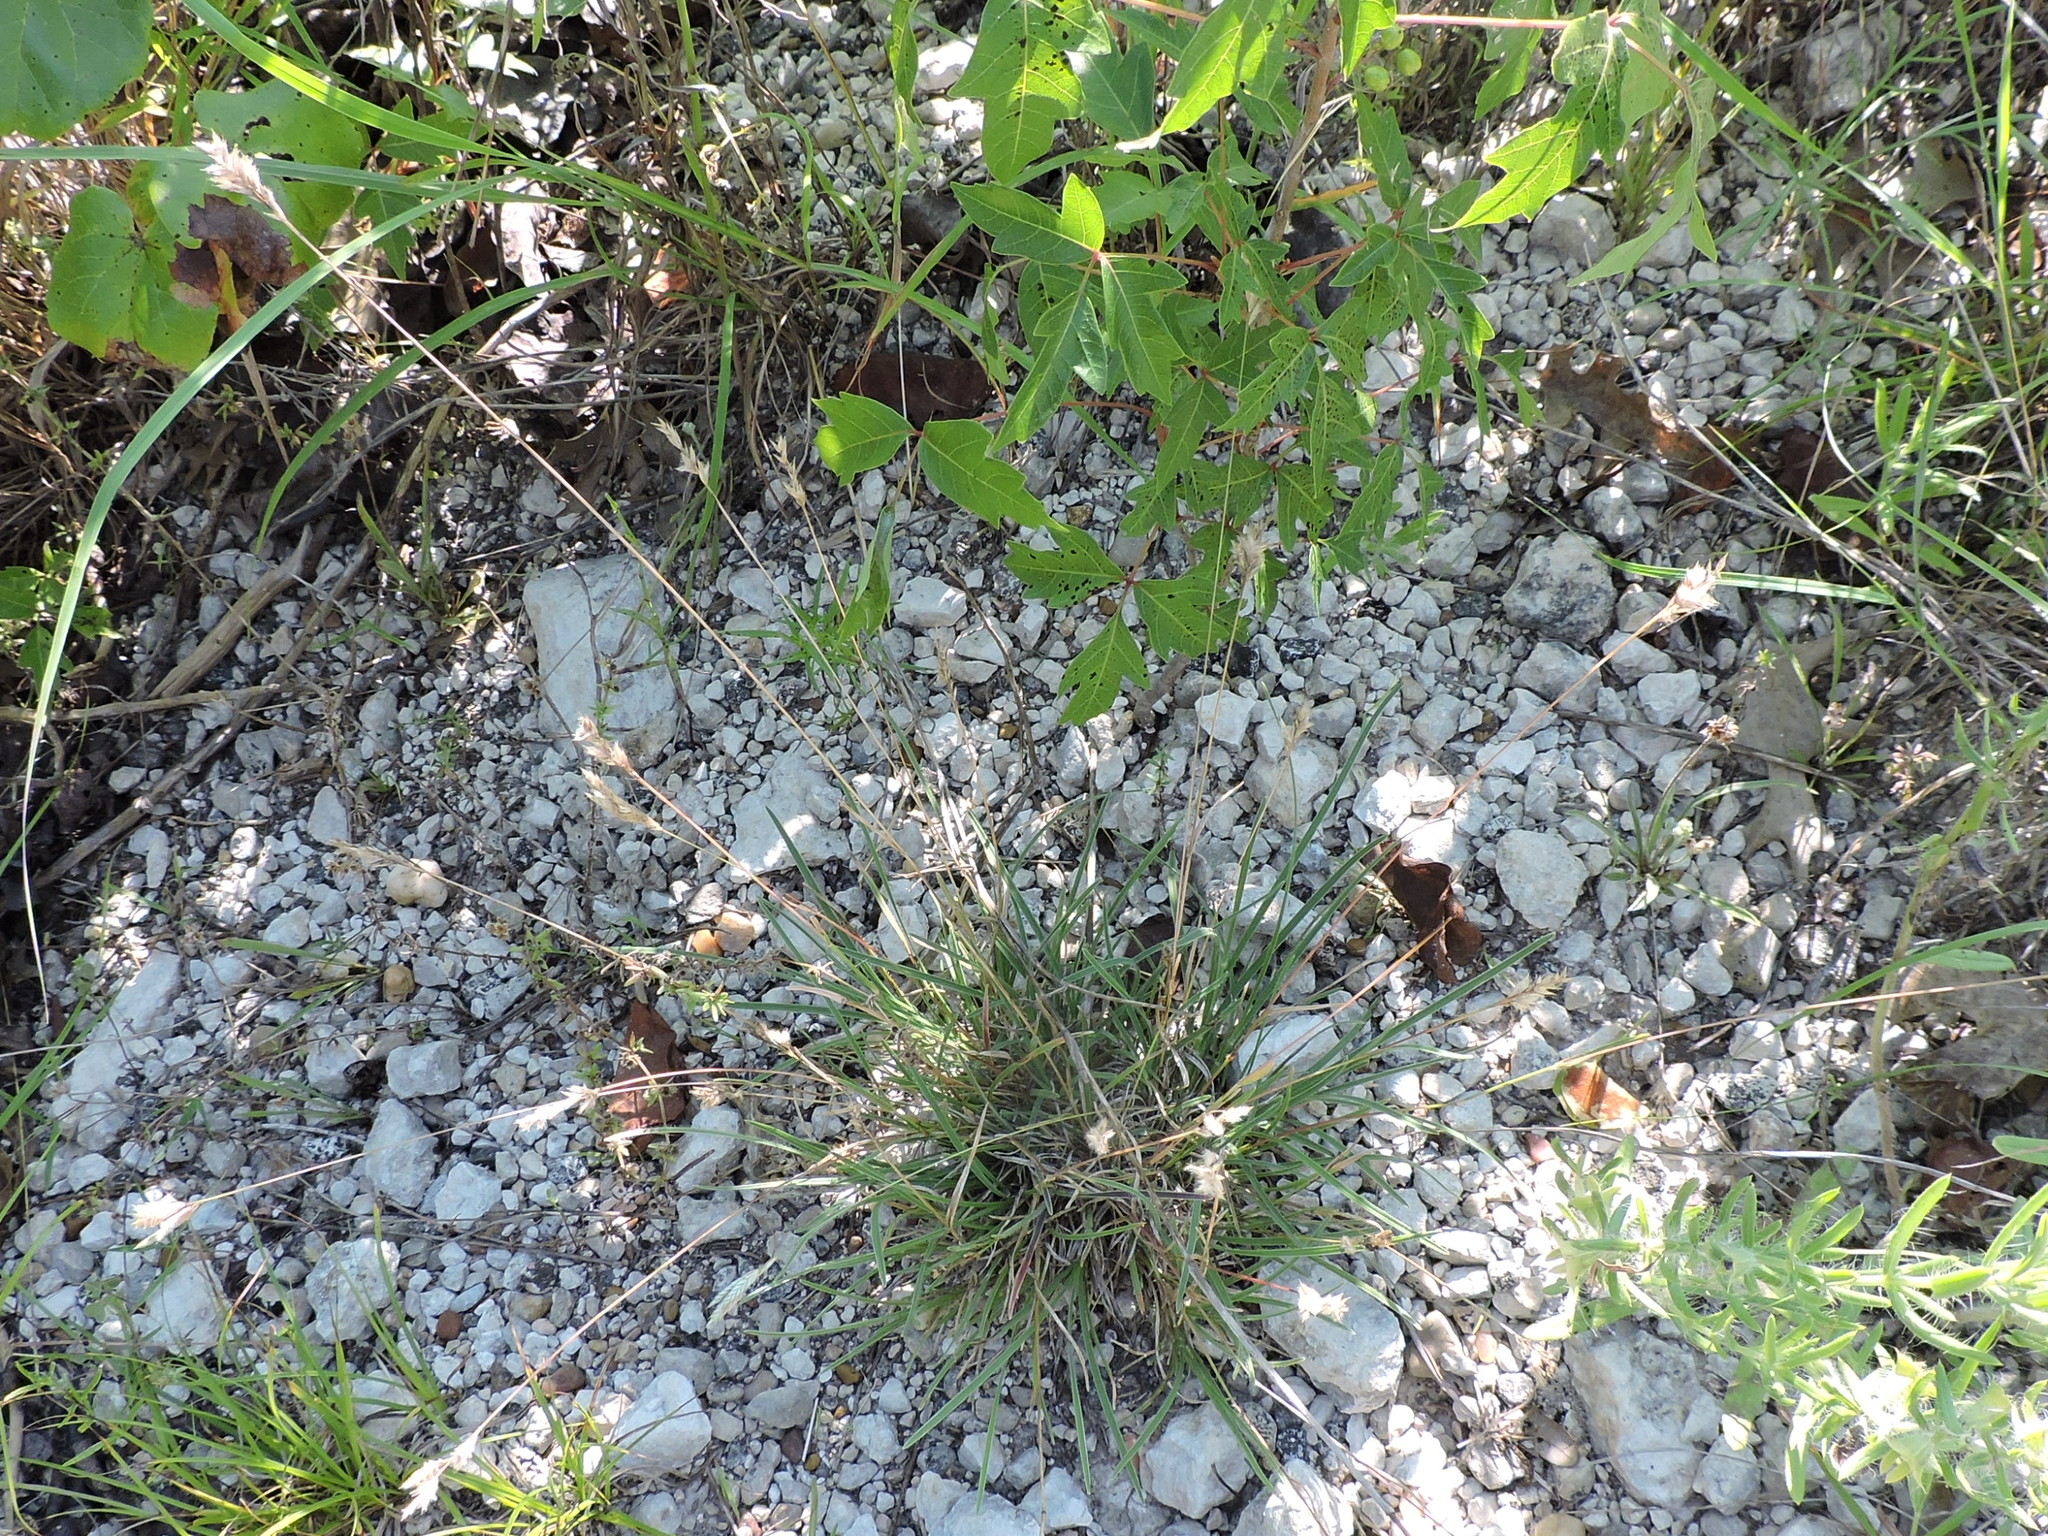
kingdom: Plantae
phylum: Tracheophyta
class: Liliopsida
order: Poales
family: Poaceae
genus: Erioneuron
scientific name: Erioneuron pilosum
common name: Hairy woolly grass
